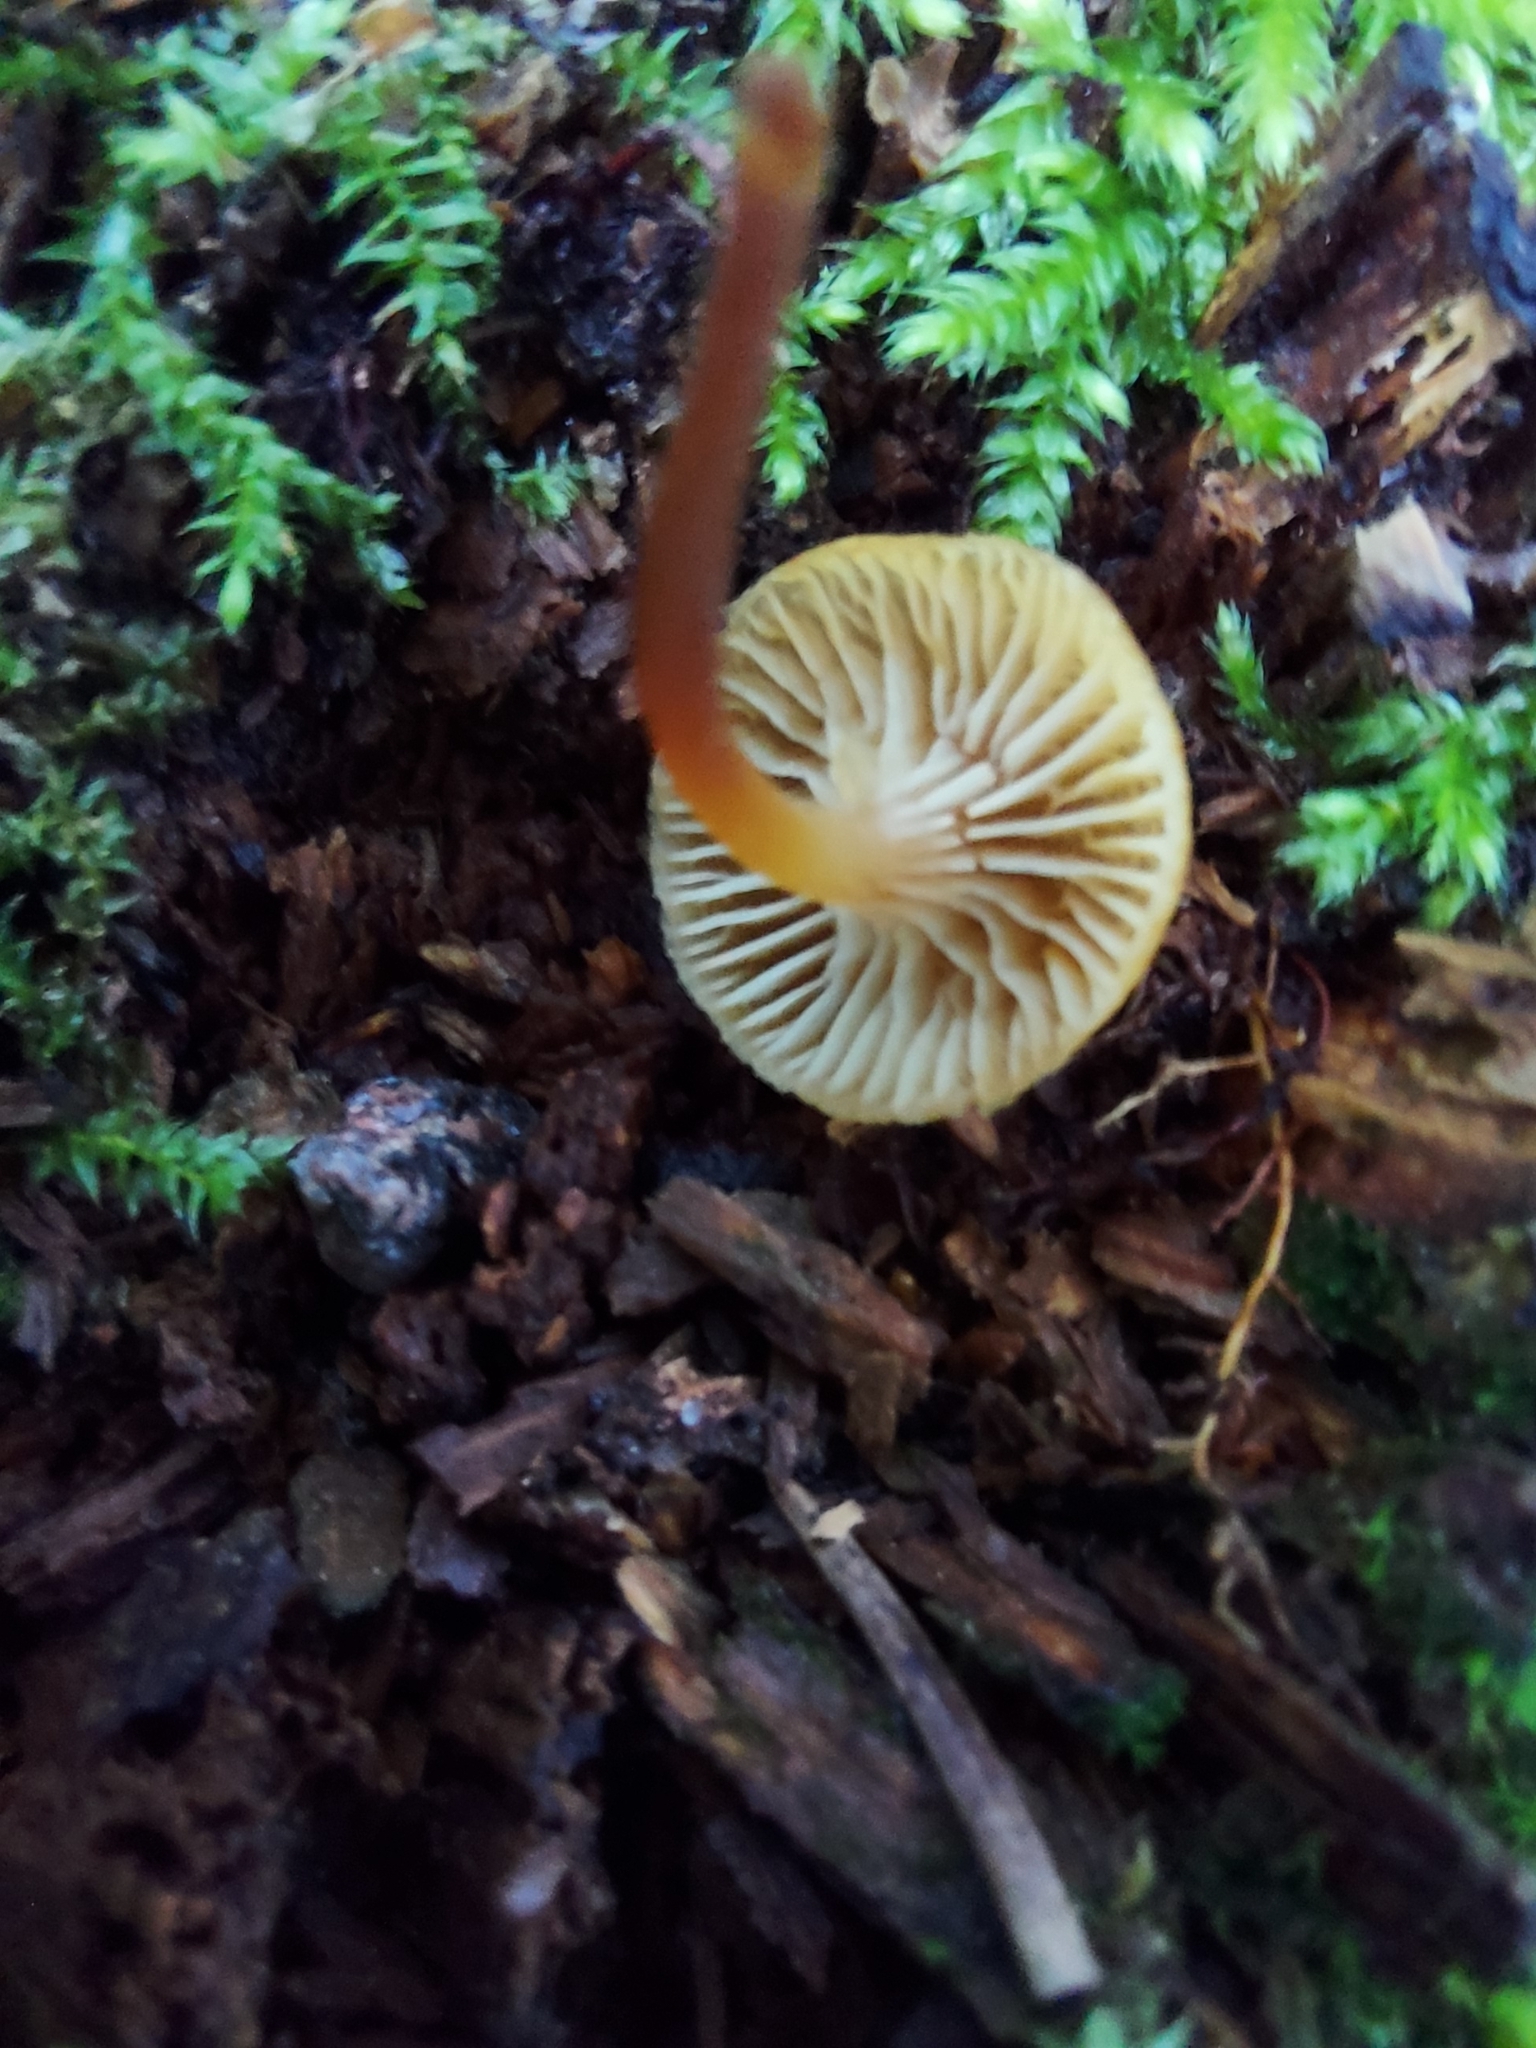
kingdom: Fungi
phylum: Basidiomycota
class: Agaricomycetes
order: Agaricales
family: Mycenaceae
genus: Xeromphalina
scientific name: Xeromphalina campanella
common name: Pinewood gingertail
